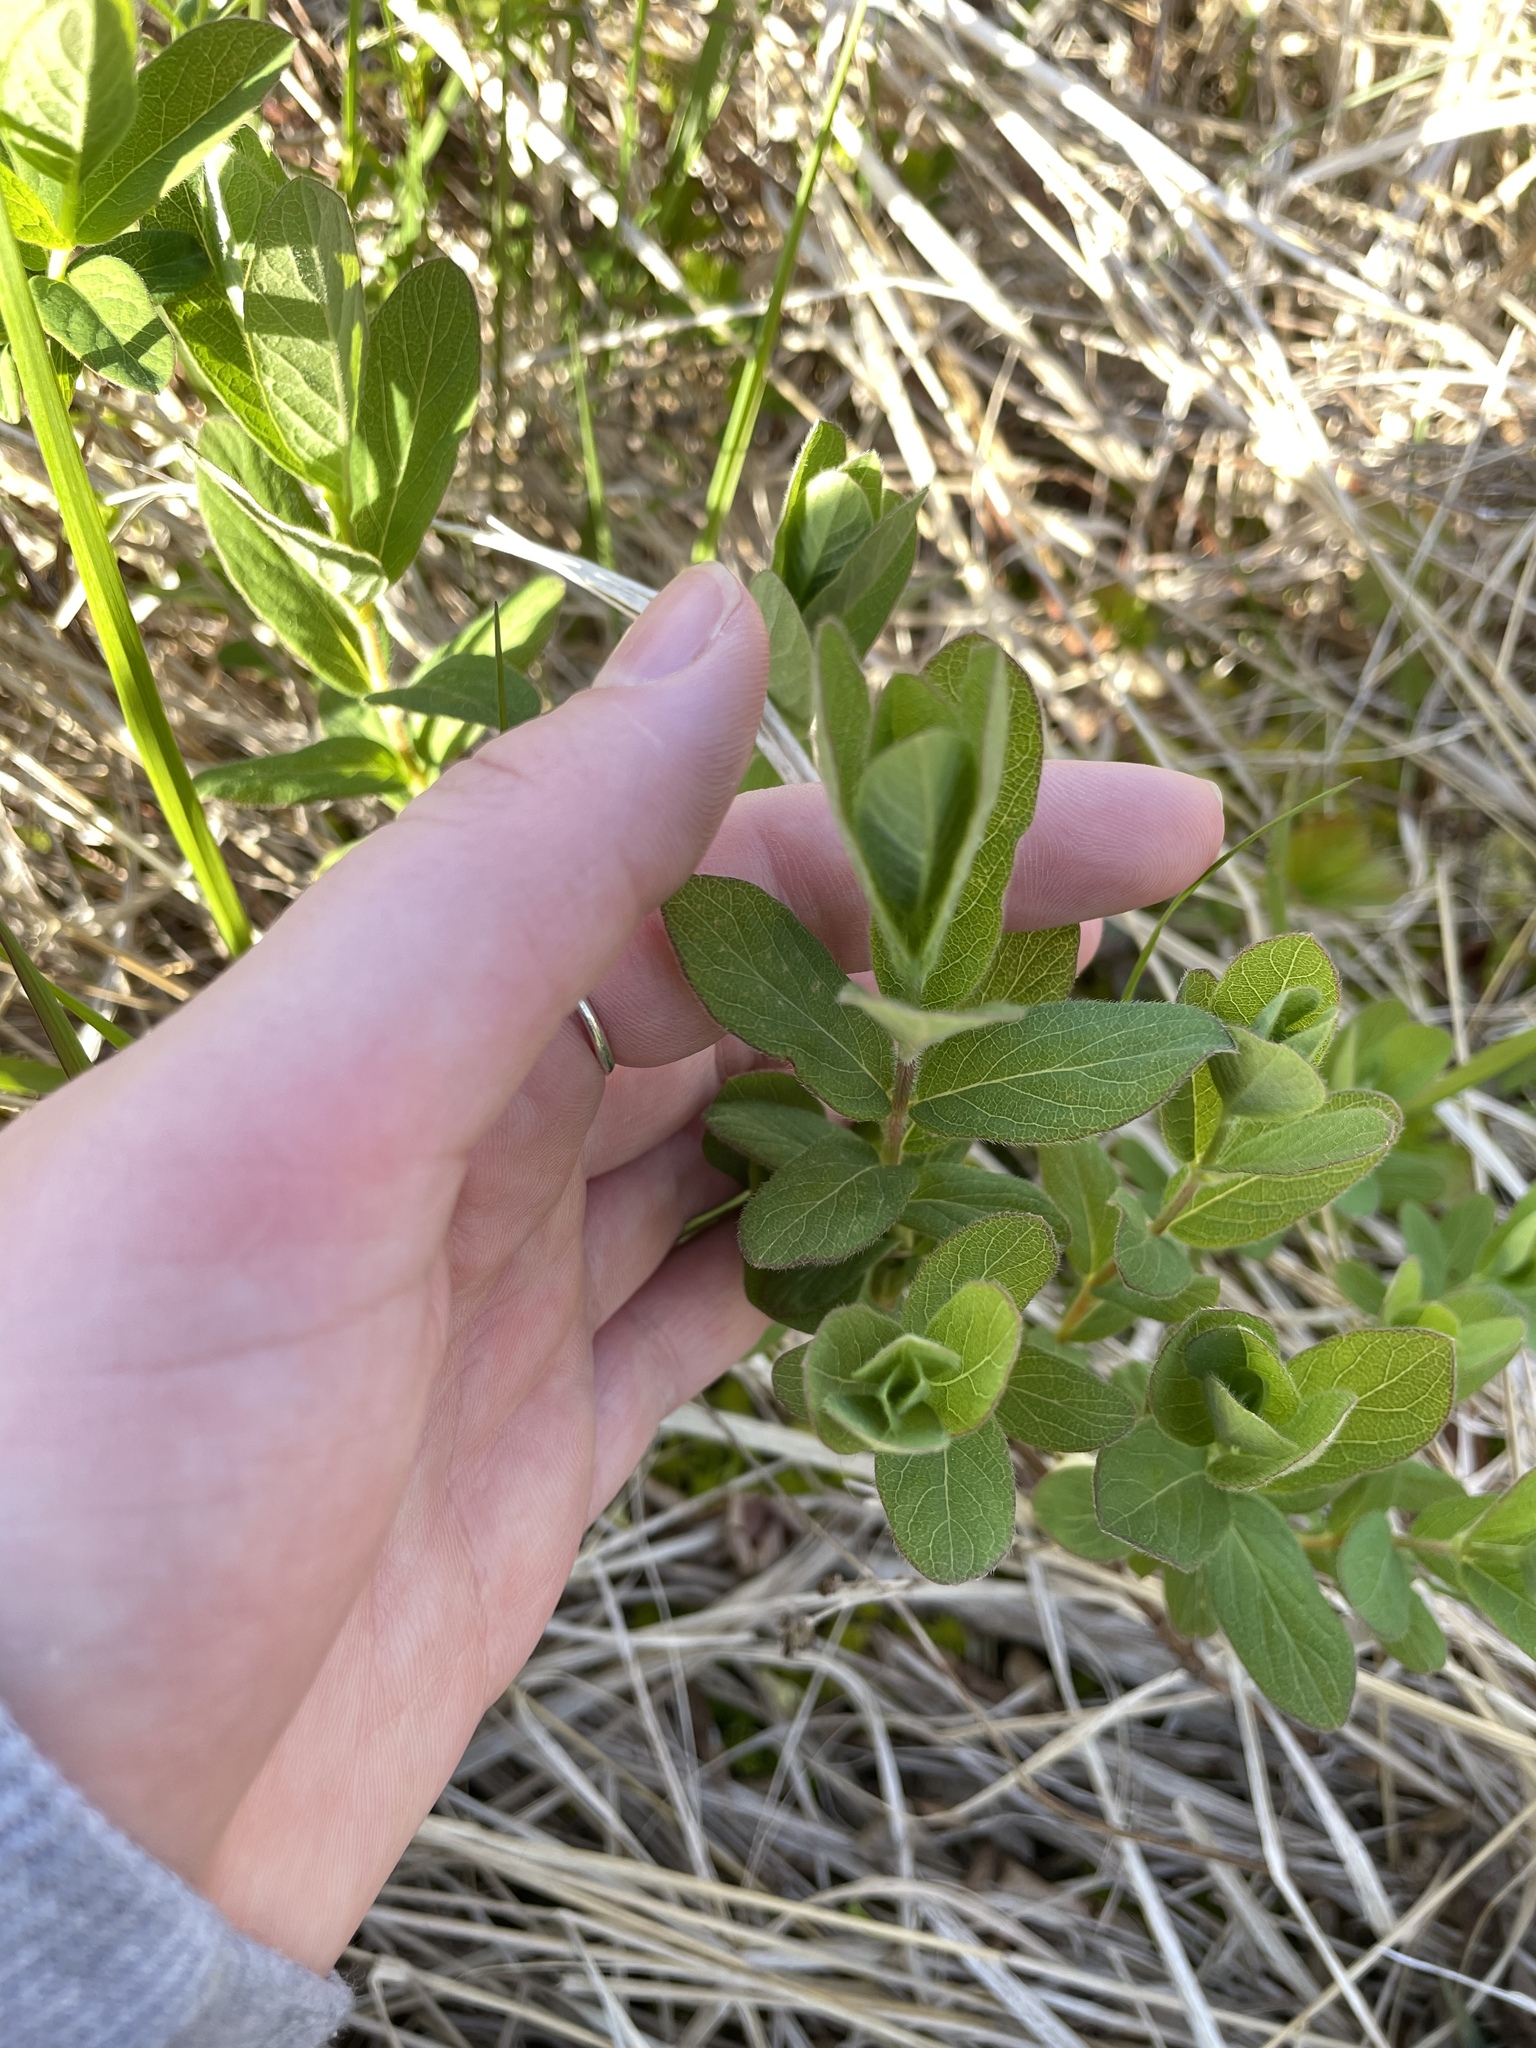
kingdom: Plantae
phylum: Tracheophyta
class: Magnoliopsida
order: Dipsacales
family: Caprifoliaceae
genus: Lonicera
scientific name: Lonicera villosa
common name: Mountain fly-honeysuckle
